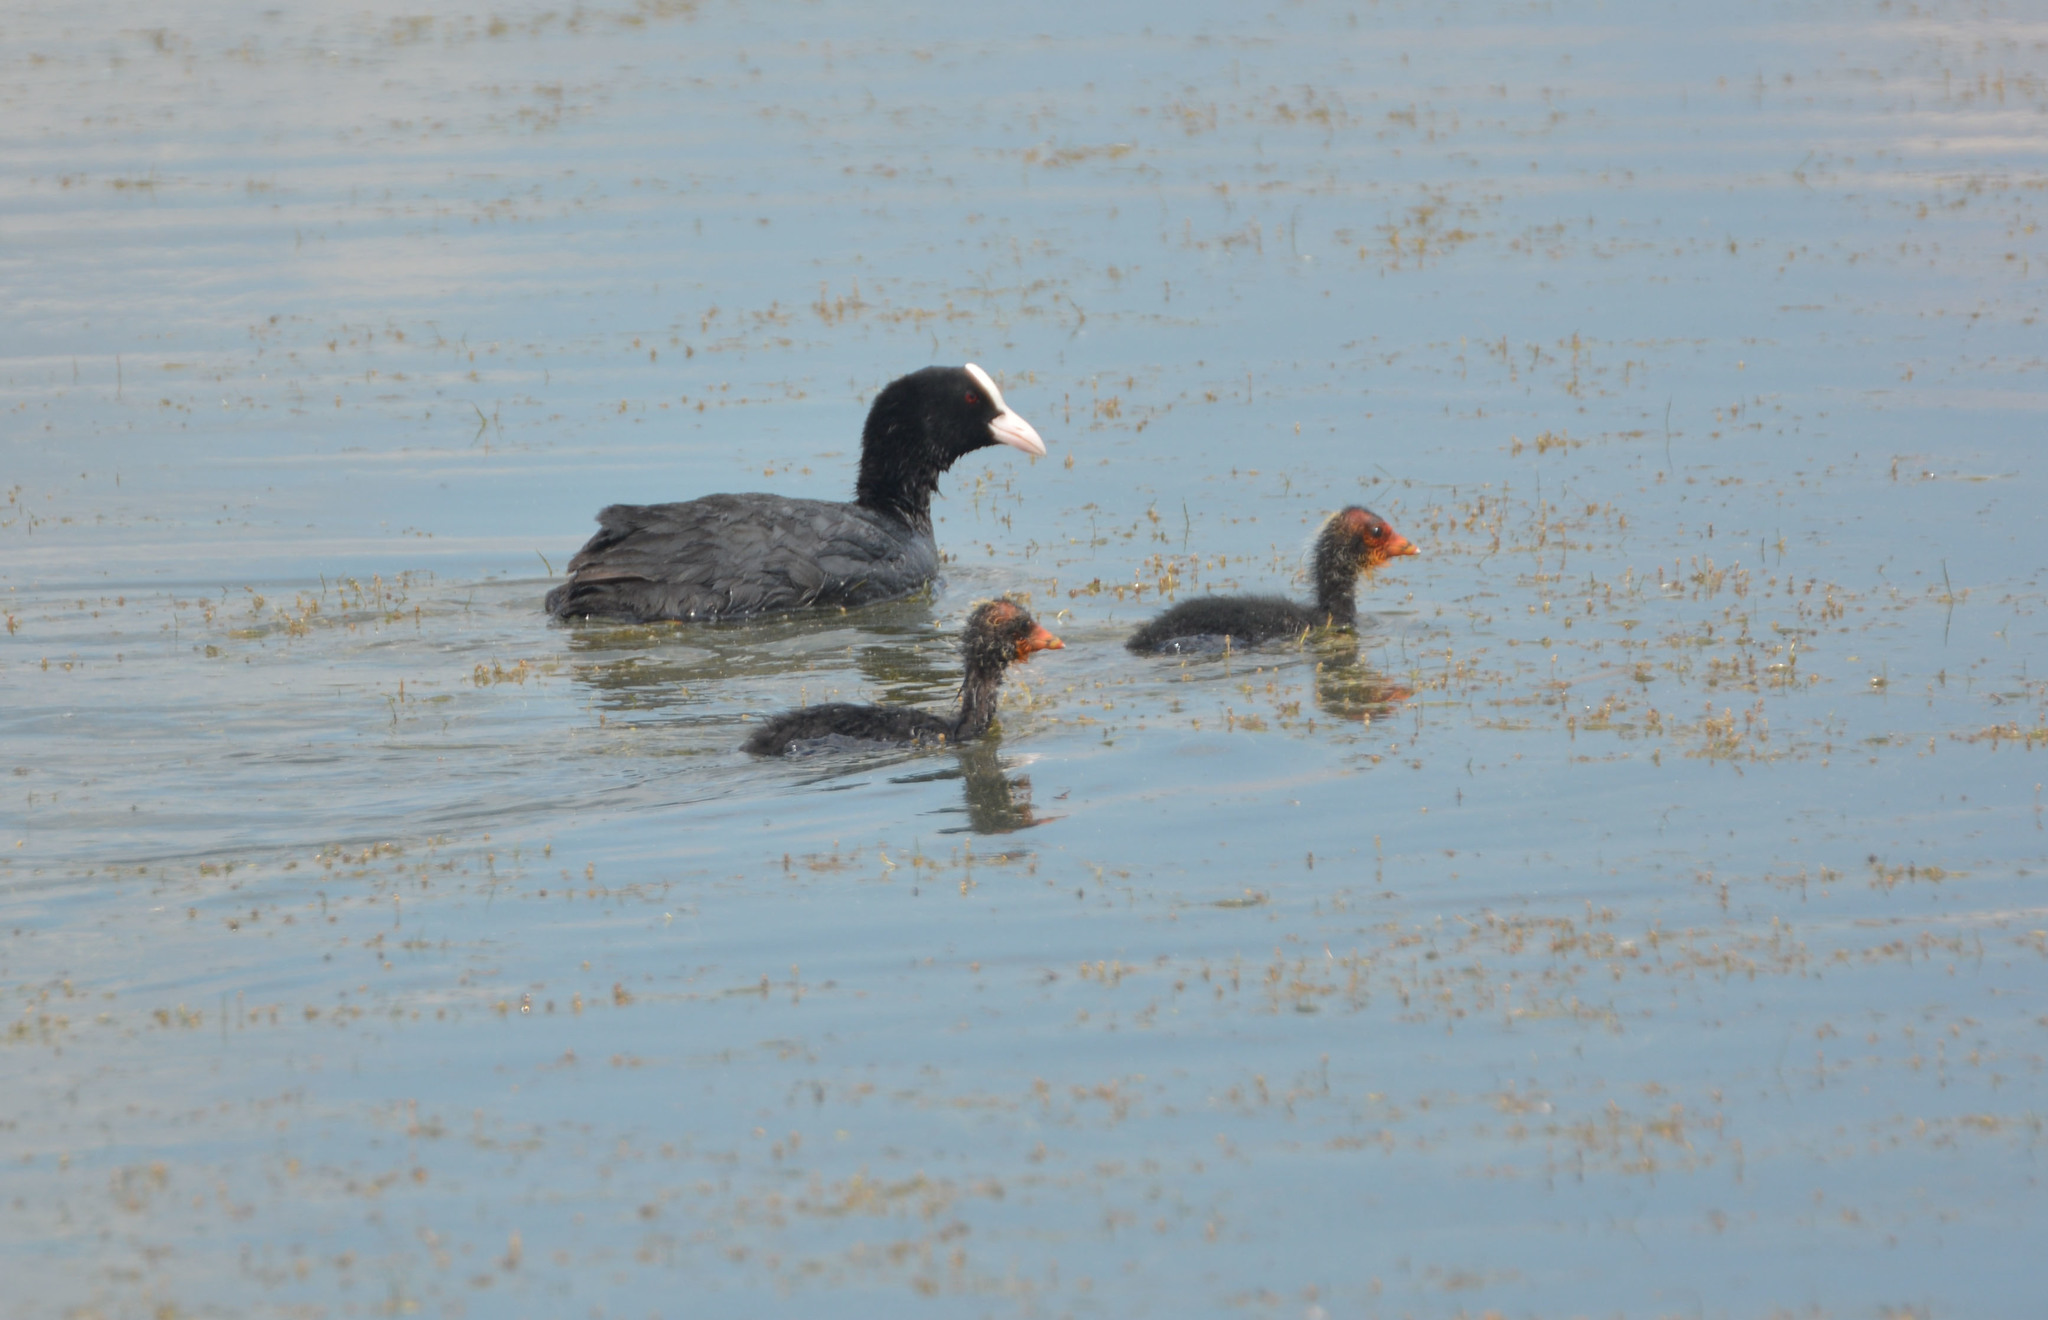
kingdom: Animalia
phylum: Chordata
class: Aves
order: Gruiformes
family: Rallidae
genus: Fulica
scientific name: Fulica atra
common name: Eurasian coot
